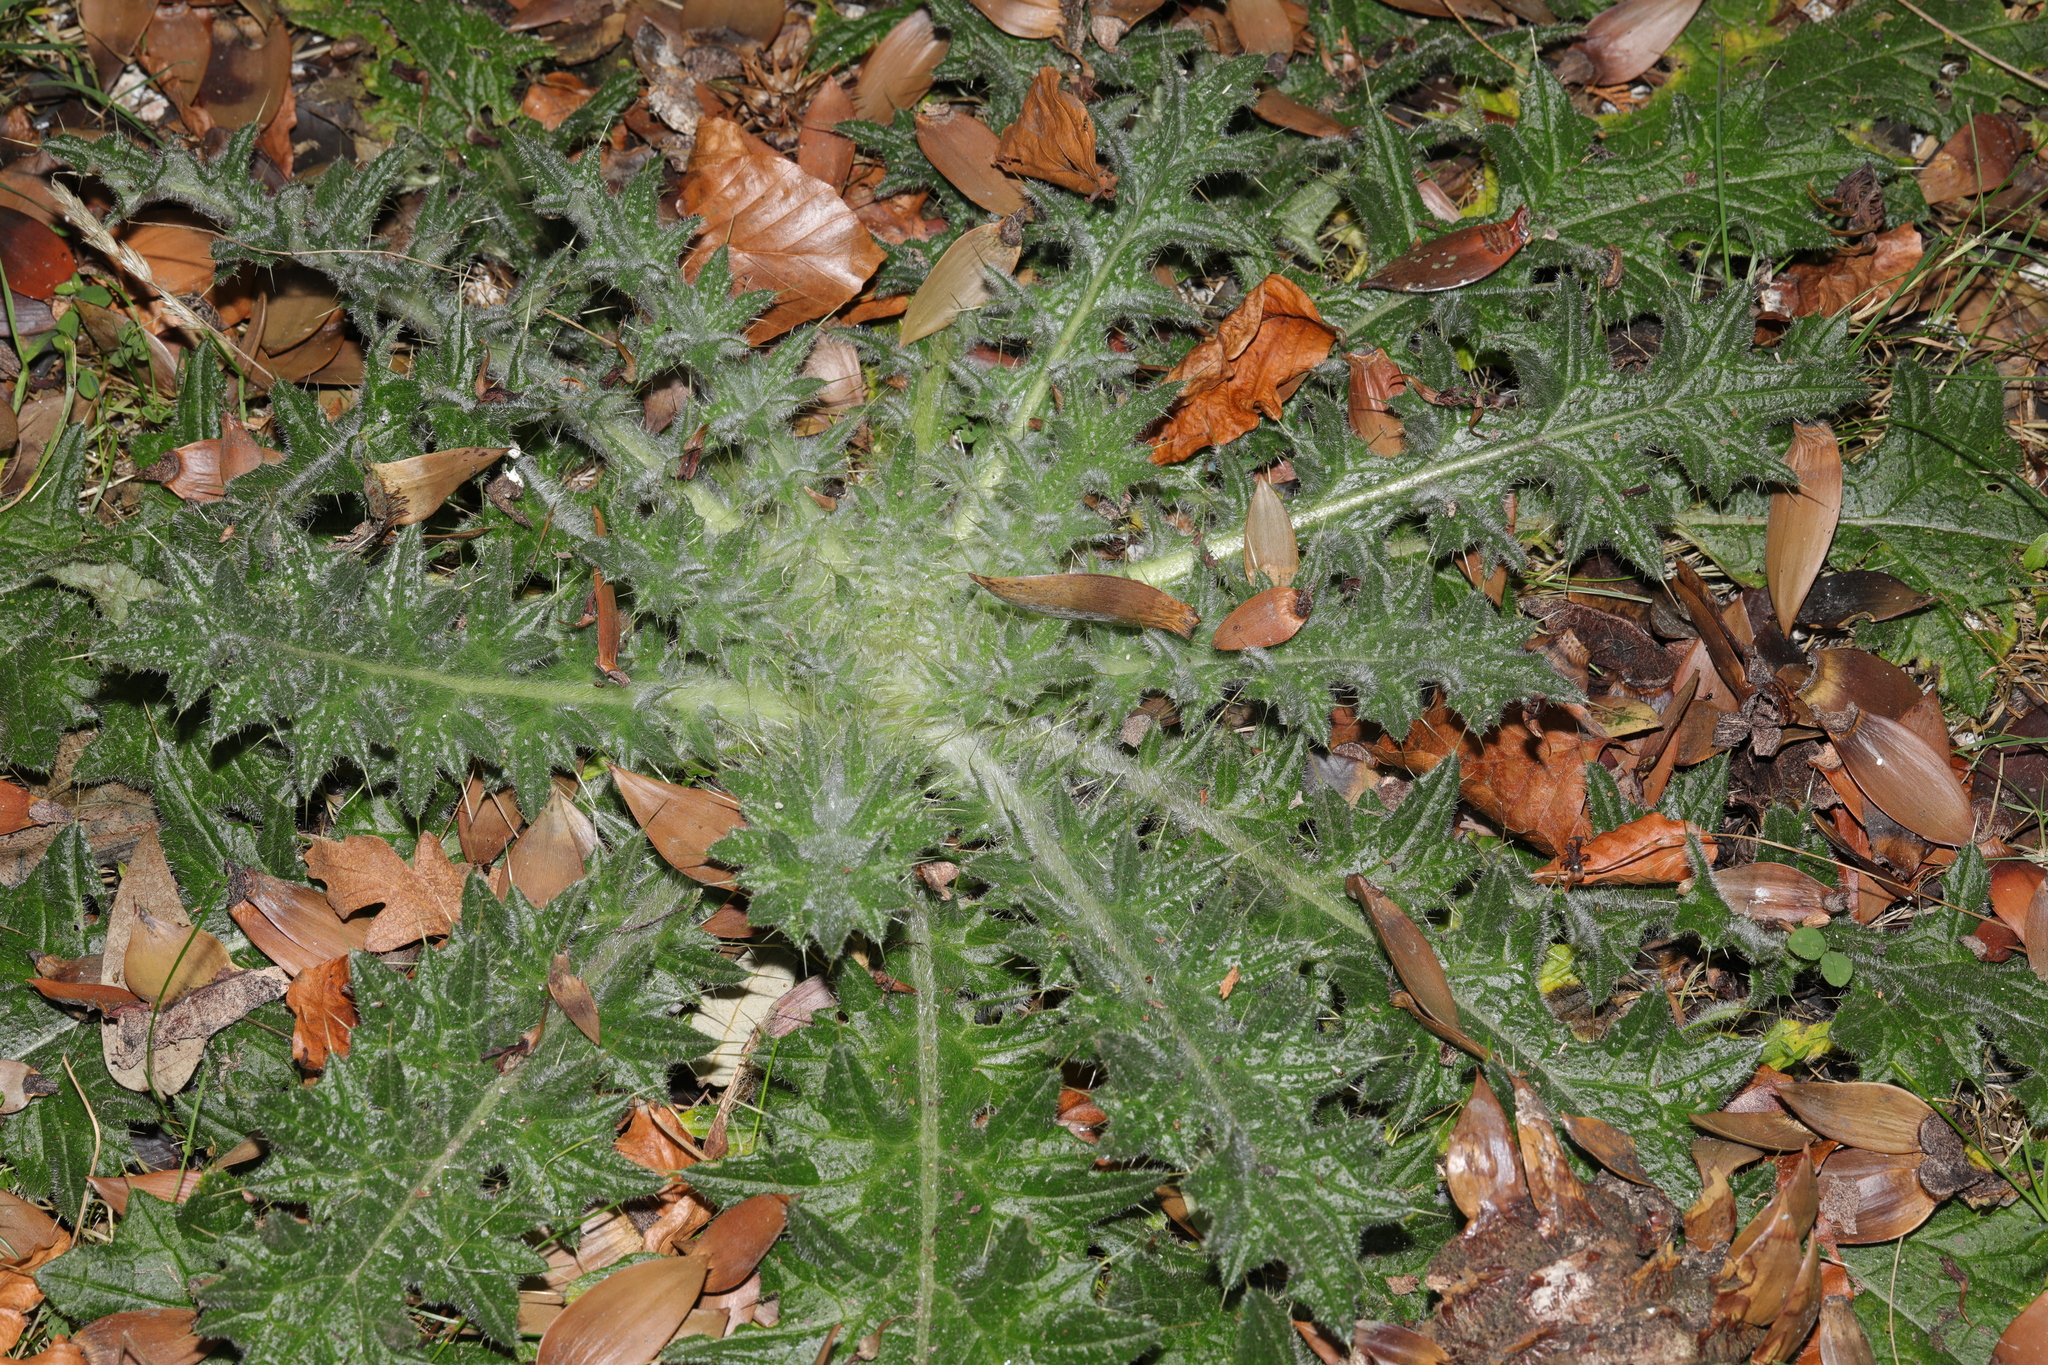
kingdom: Plantae
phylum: Tracheophyta
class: Magnoliopsida
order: Asterales
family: Asteraceae
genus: Cirsium
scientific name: Cirsium vulgare
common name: Bull thistle
